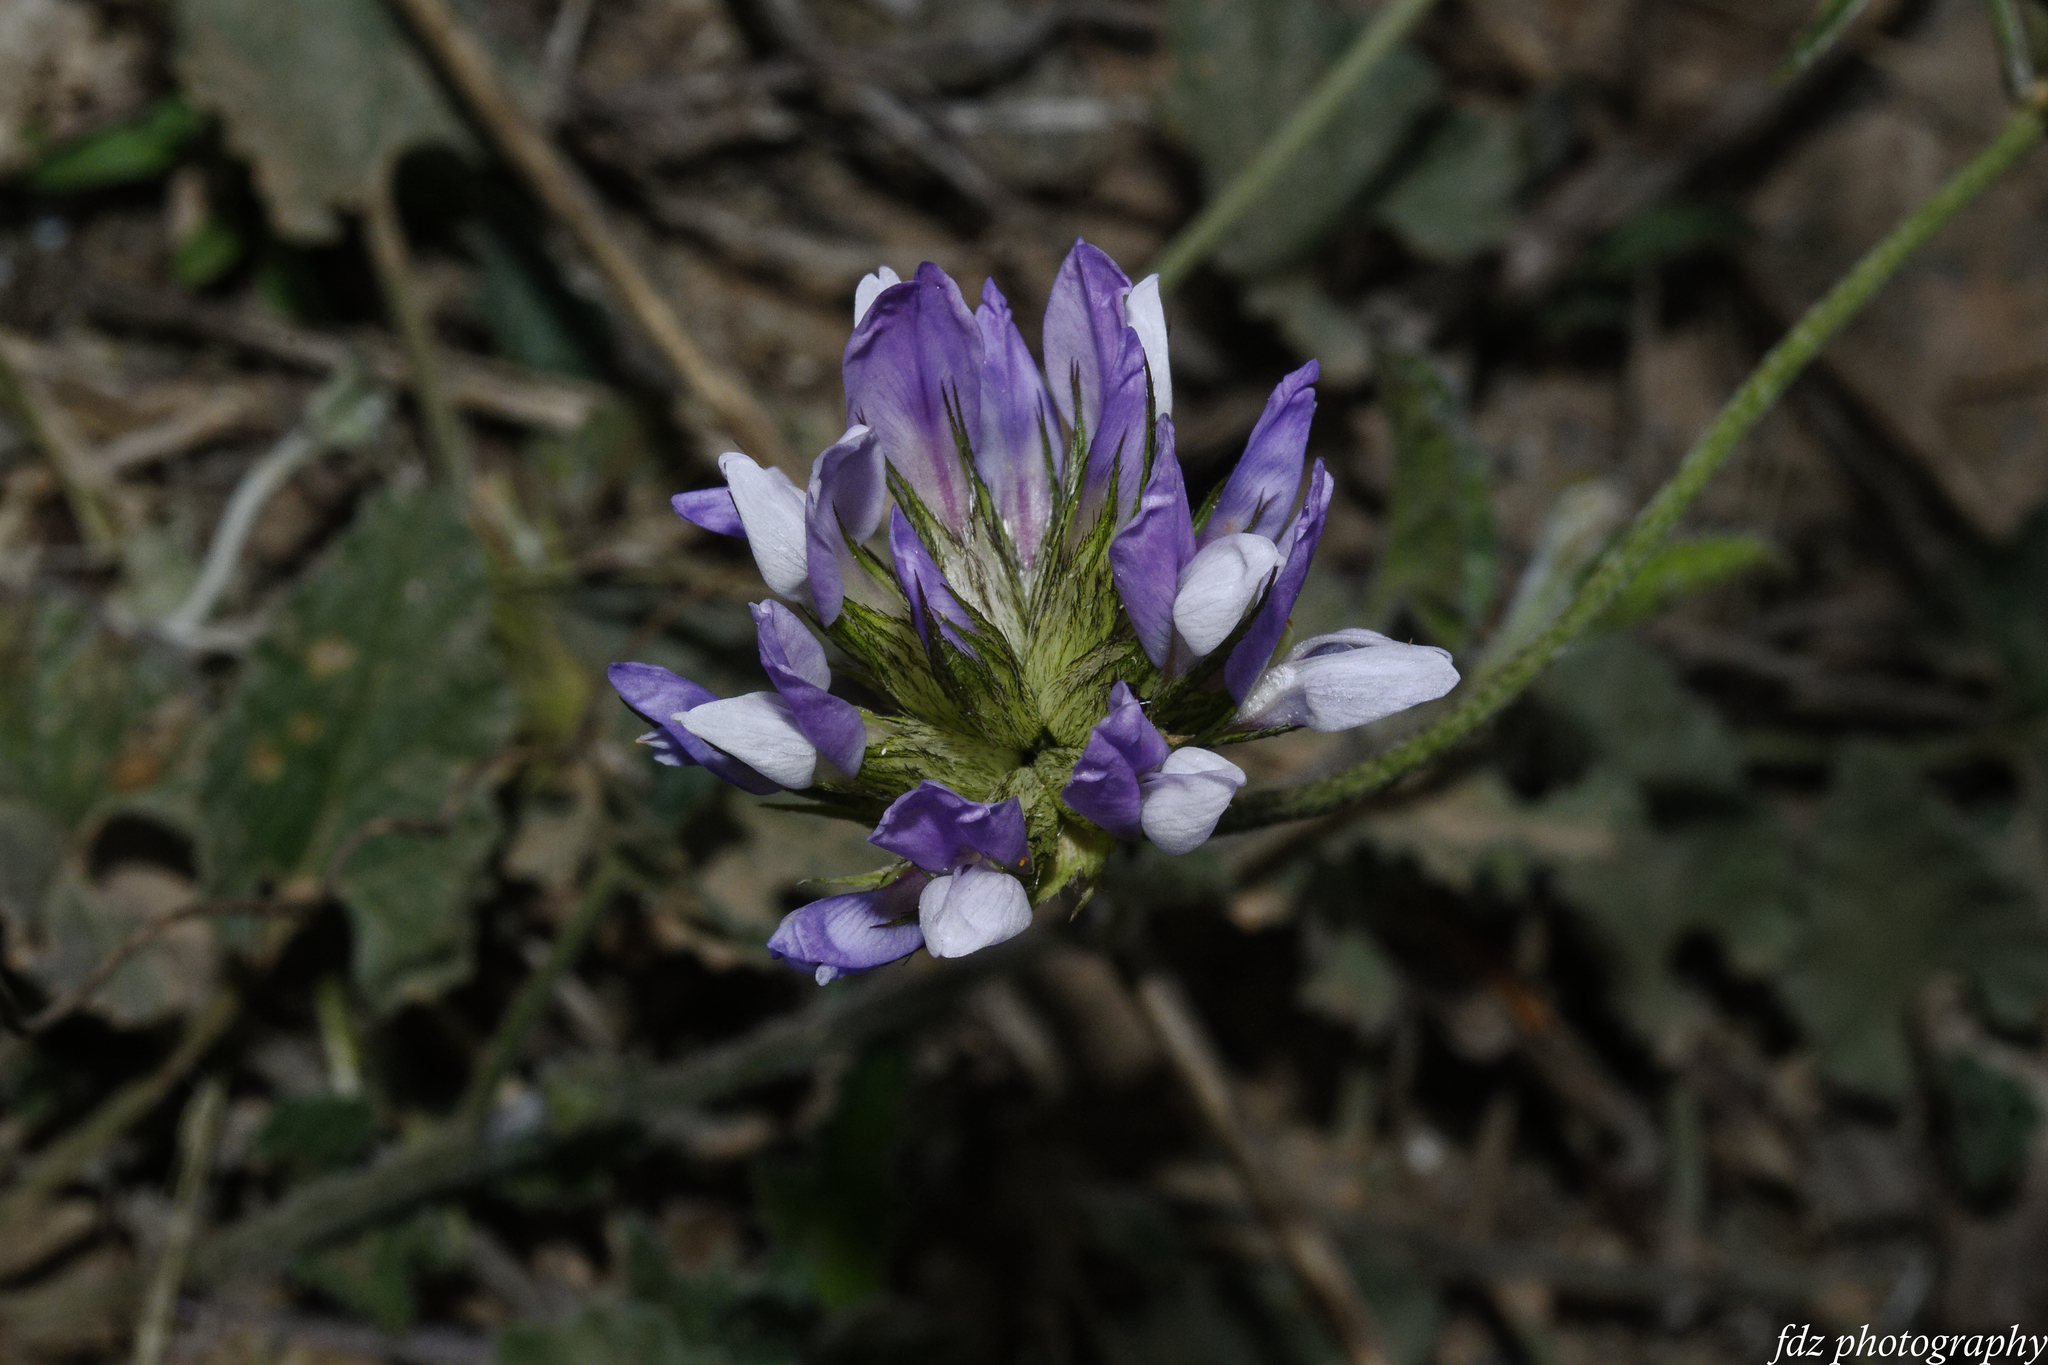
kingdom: Plantae
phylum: Tracheophyta
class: Magnoliopsida
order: Fabales
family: Fabaceae
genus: Bituminaria
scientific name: Bituminaria bituminosa
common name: Arabian pea
